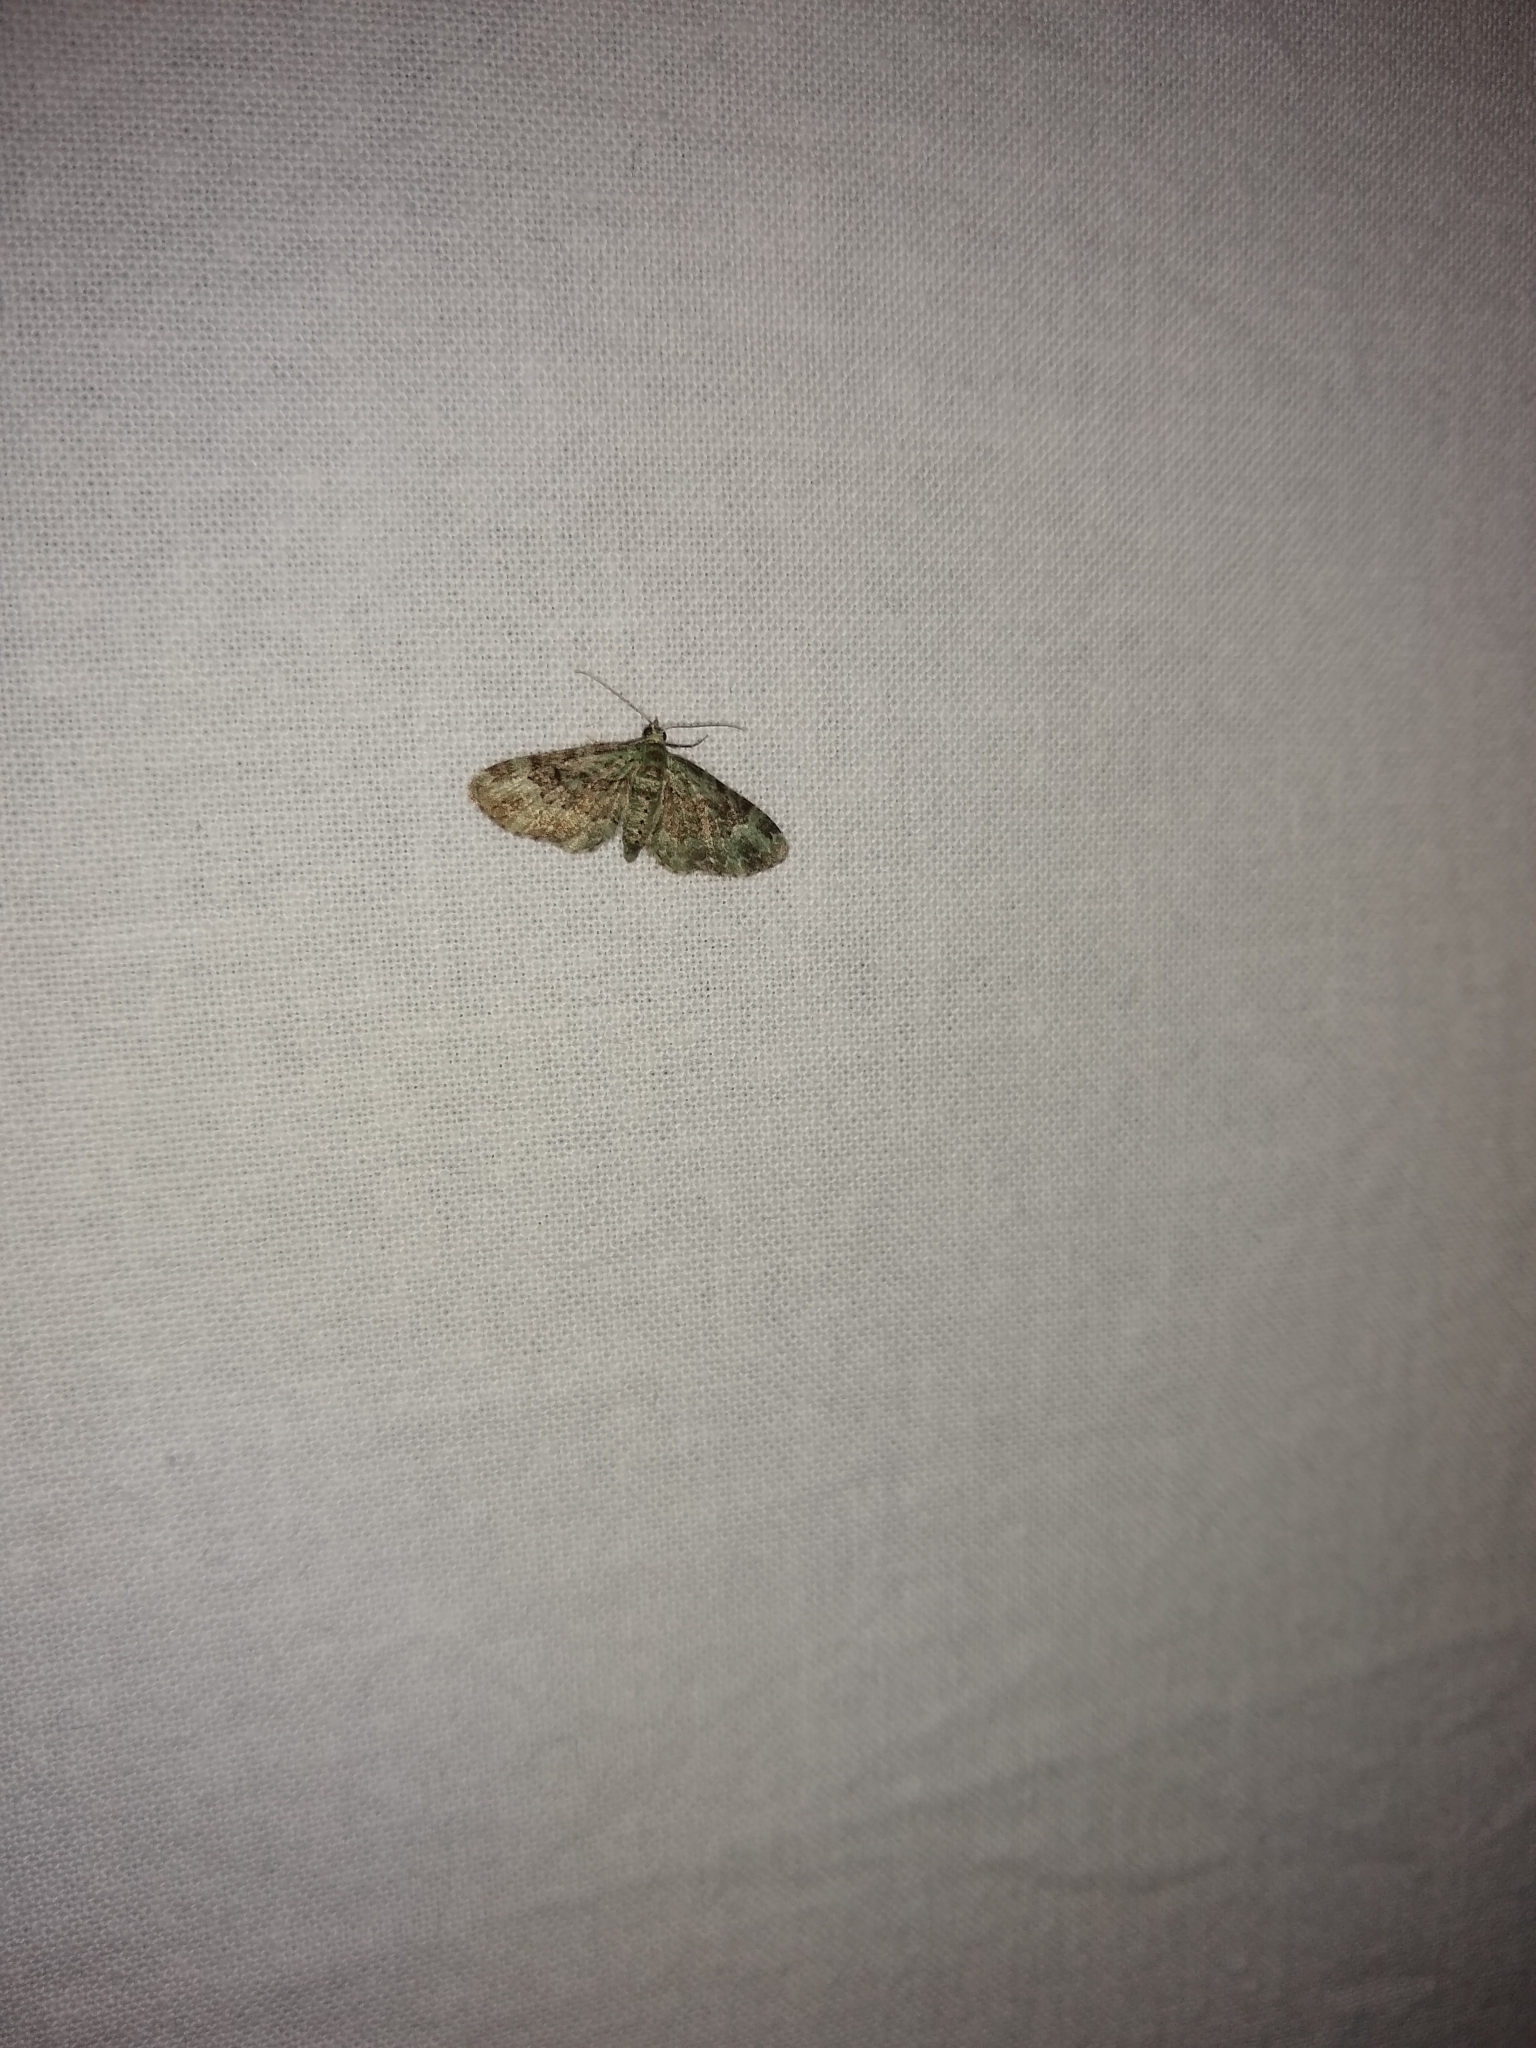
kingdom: Animalia
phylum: Arthropoda
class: Insecta
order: Lepidoptera
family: Geometridae
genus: Pasiphila
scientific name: Pasiphila rectangulata
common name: Green pug
